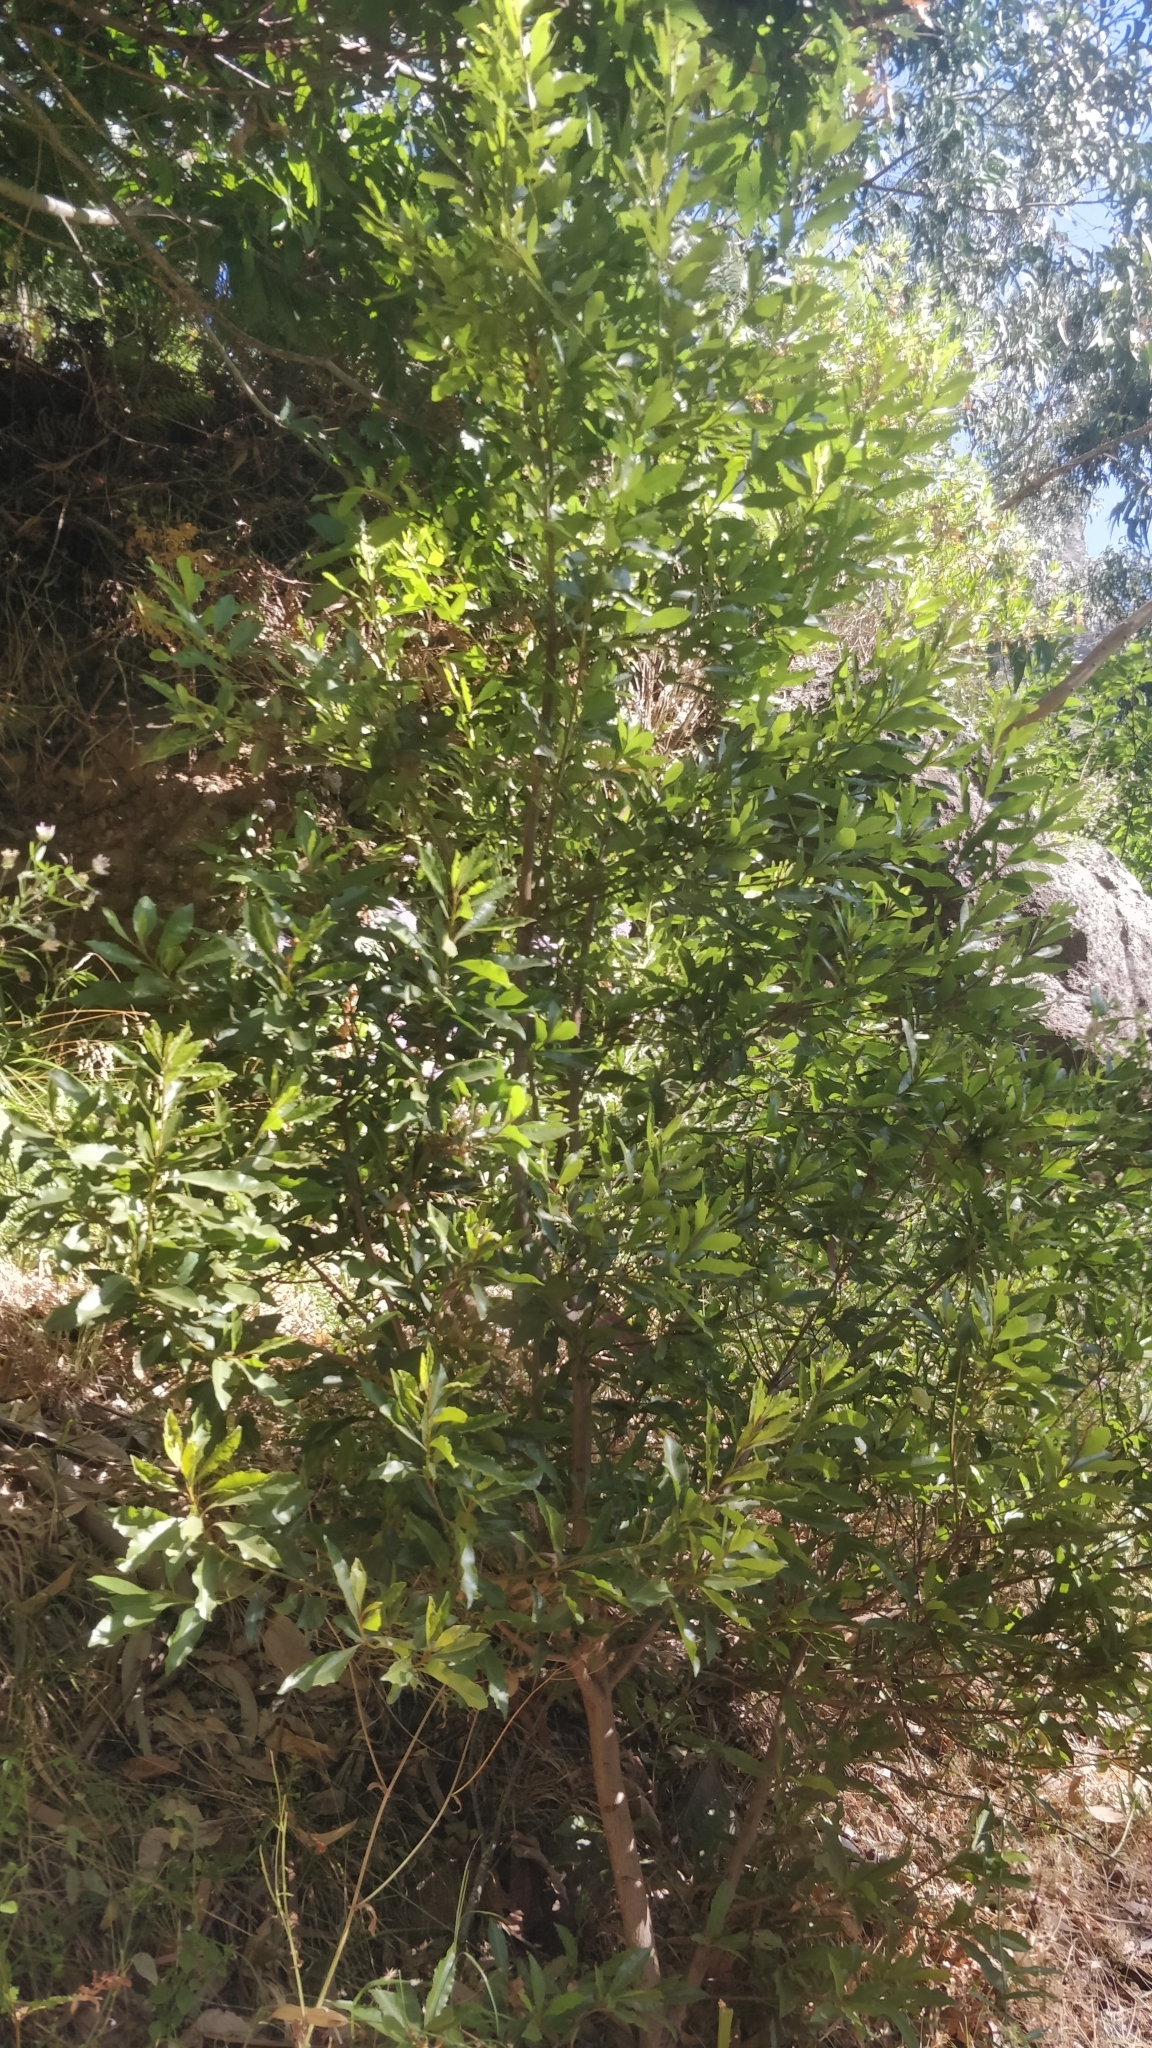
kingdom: Plantae
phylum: Tracheophyta
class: Magnoliopsida
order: Fagales
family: Myricaceae
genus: Morella
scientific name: Morella faya
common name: Firetree
